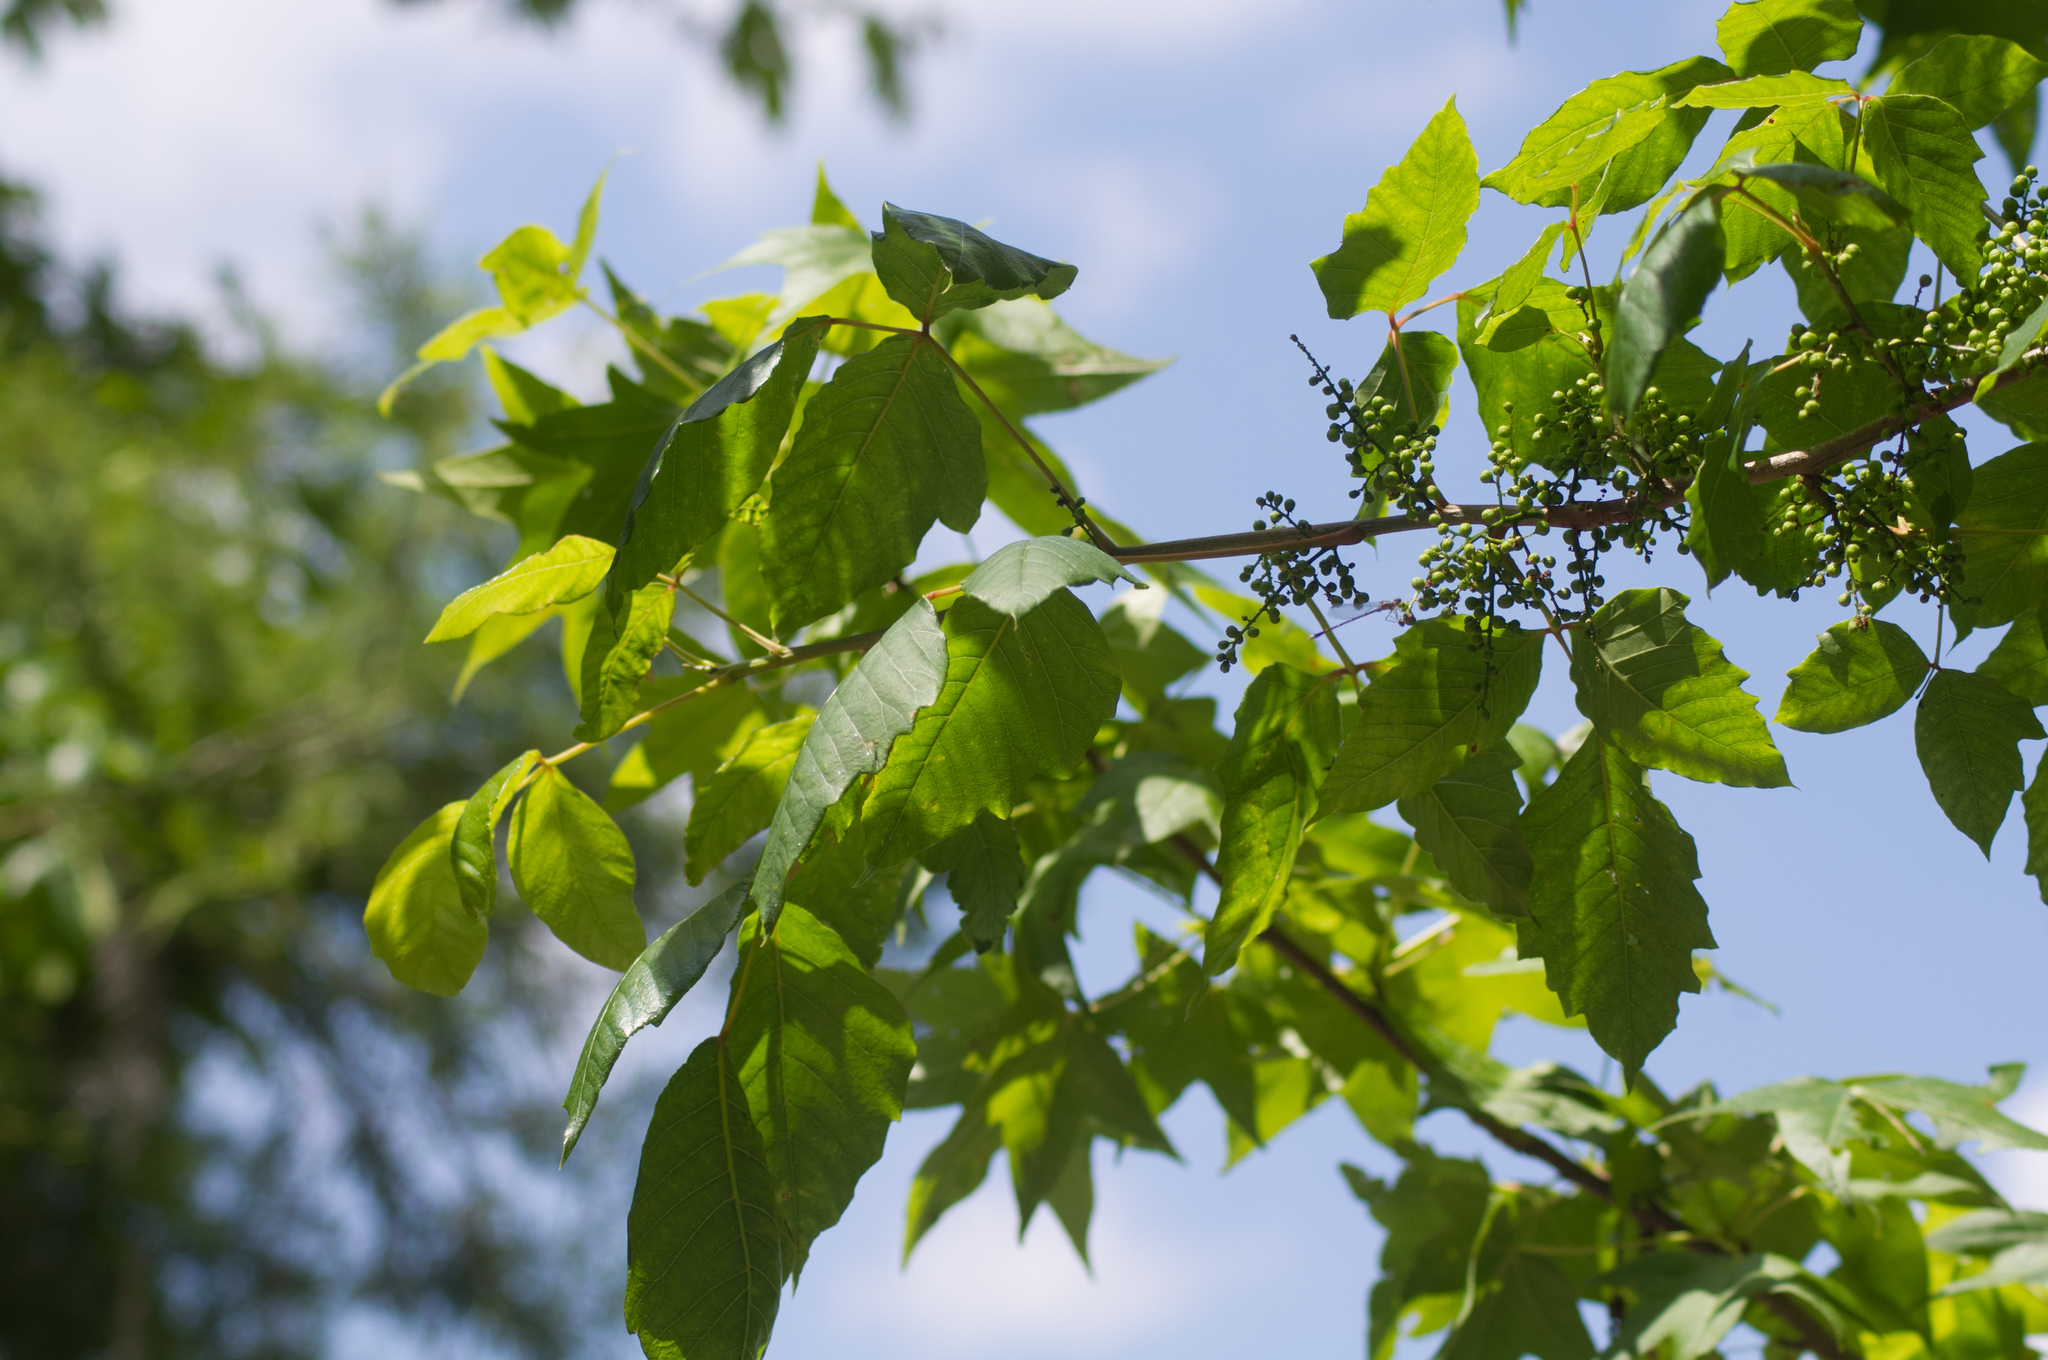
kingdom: Plantae
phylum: Tracheophyta
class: Magnoliopsida
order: Sapindales
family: Anacardiaceae
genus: Toxicodendron
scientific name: Toxicodendron radicans
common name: Poison ivy
